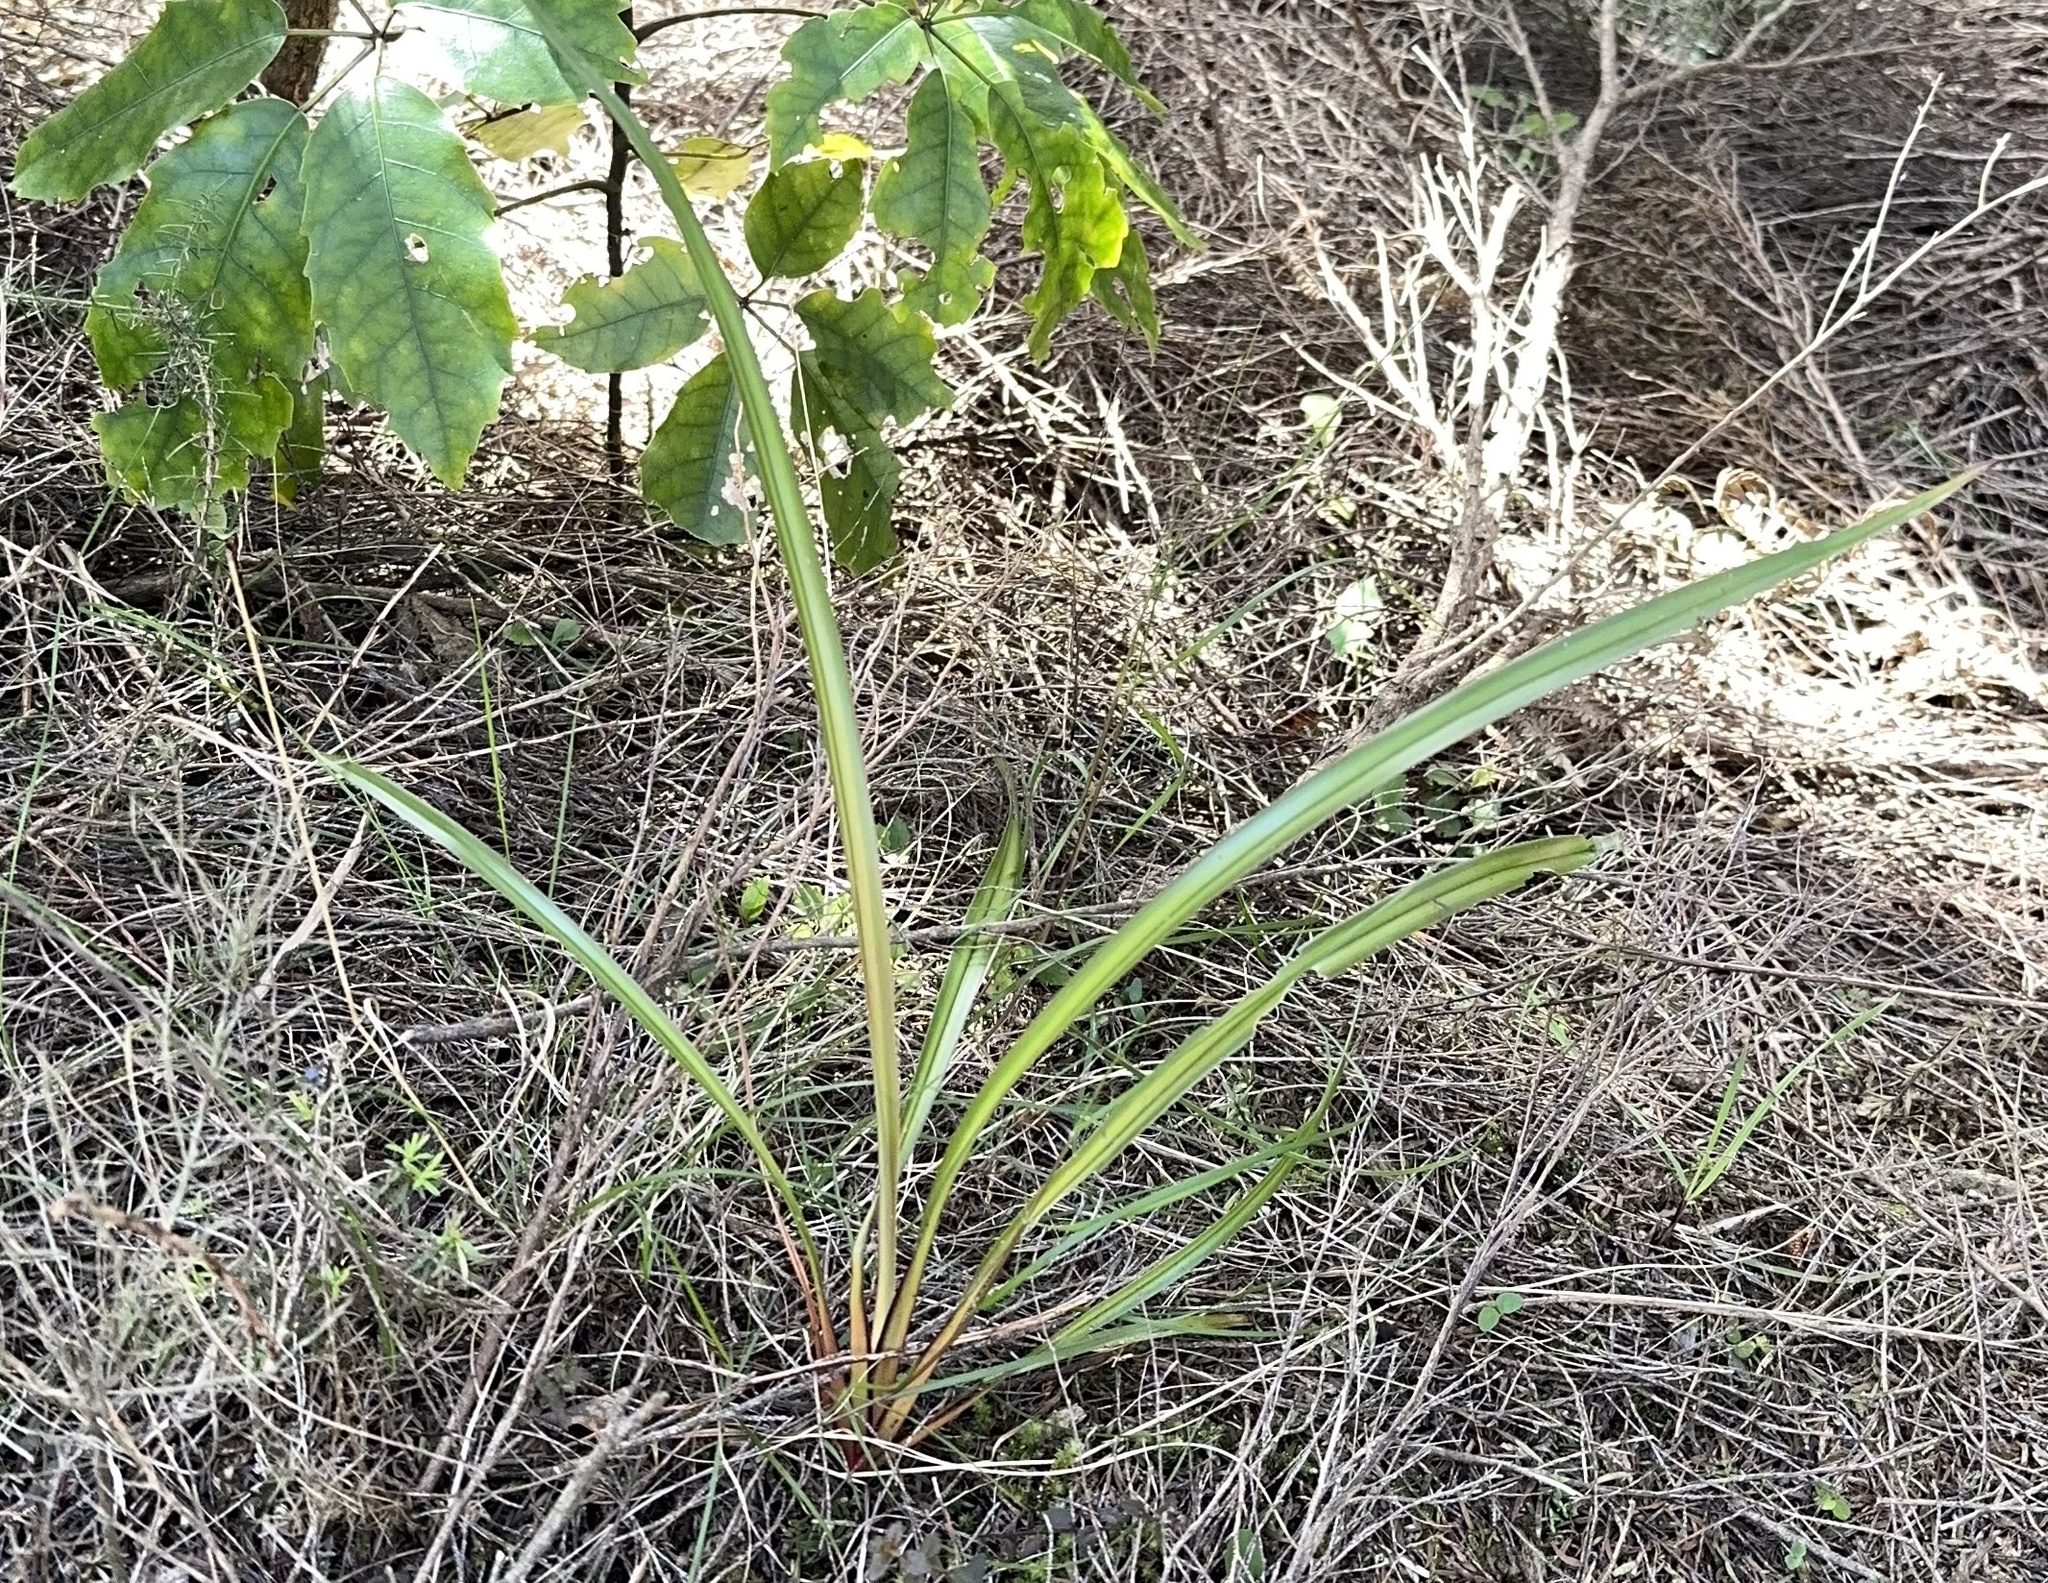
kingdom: Plantae
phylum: Tracheophyta
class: Liliopsida
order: Asparagales
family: Asphodelaceae
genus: Dianella
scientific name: Dianella nigra
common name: New zealand-blueberry
